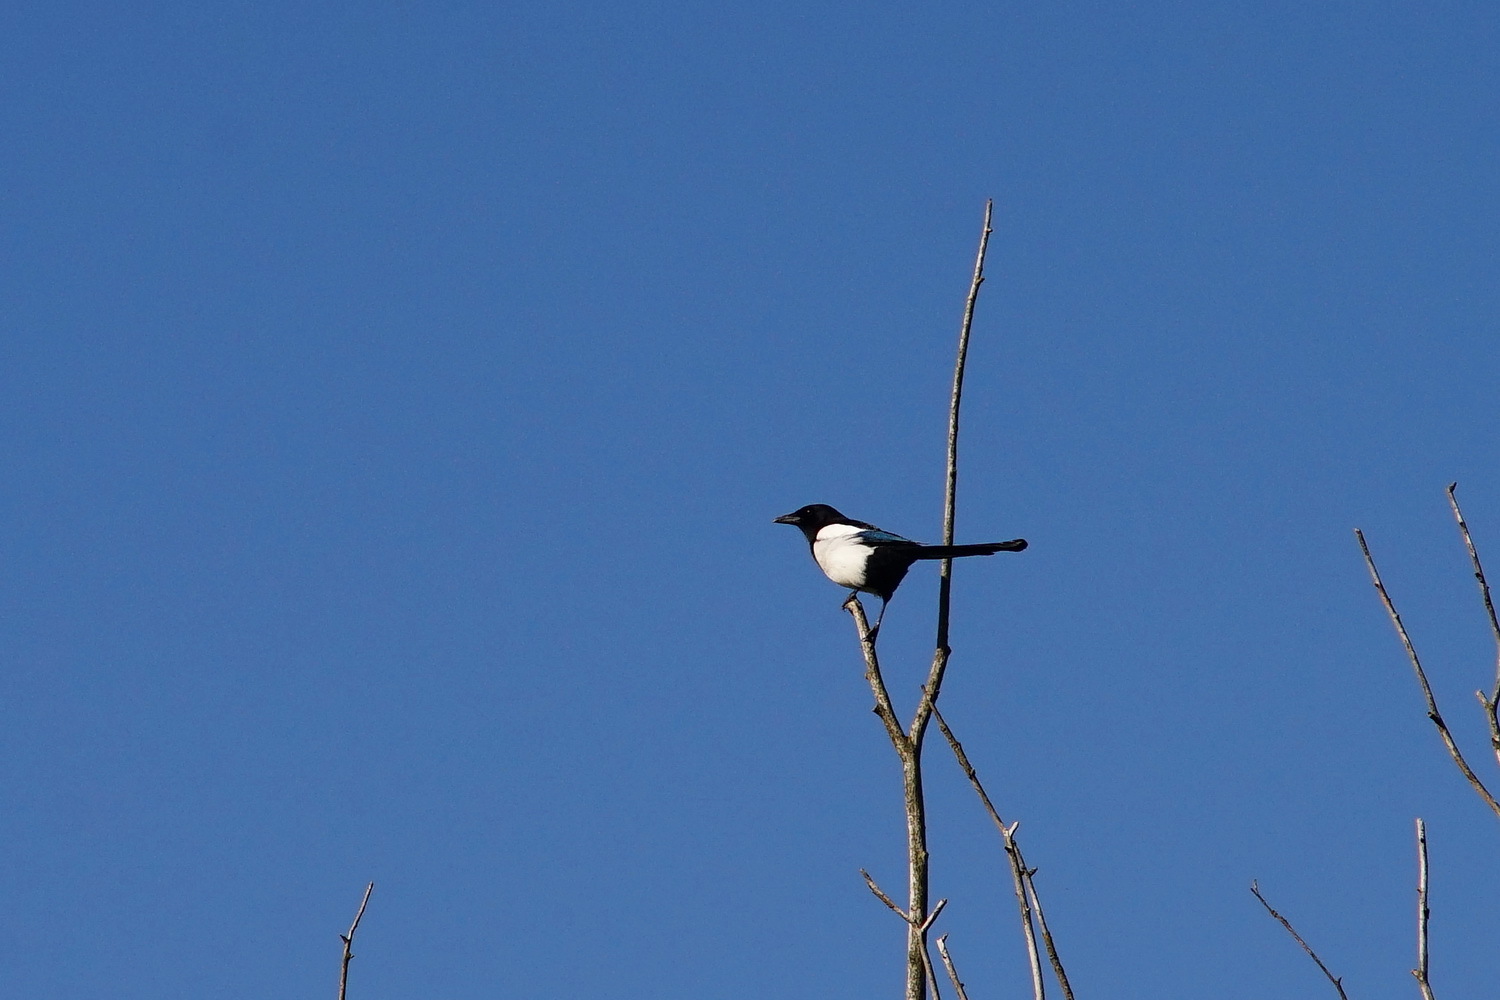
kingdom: Animalia
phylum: Chordata
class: Aves
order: Passeriformes
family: Corvidae
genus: Pica
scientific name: Pica pica
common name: Eurasian magpie
